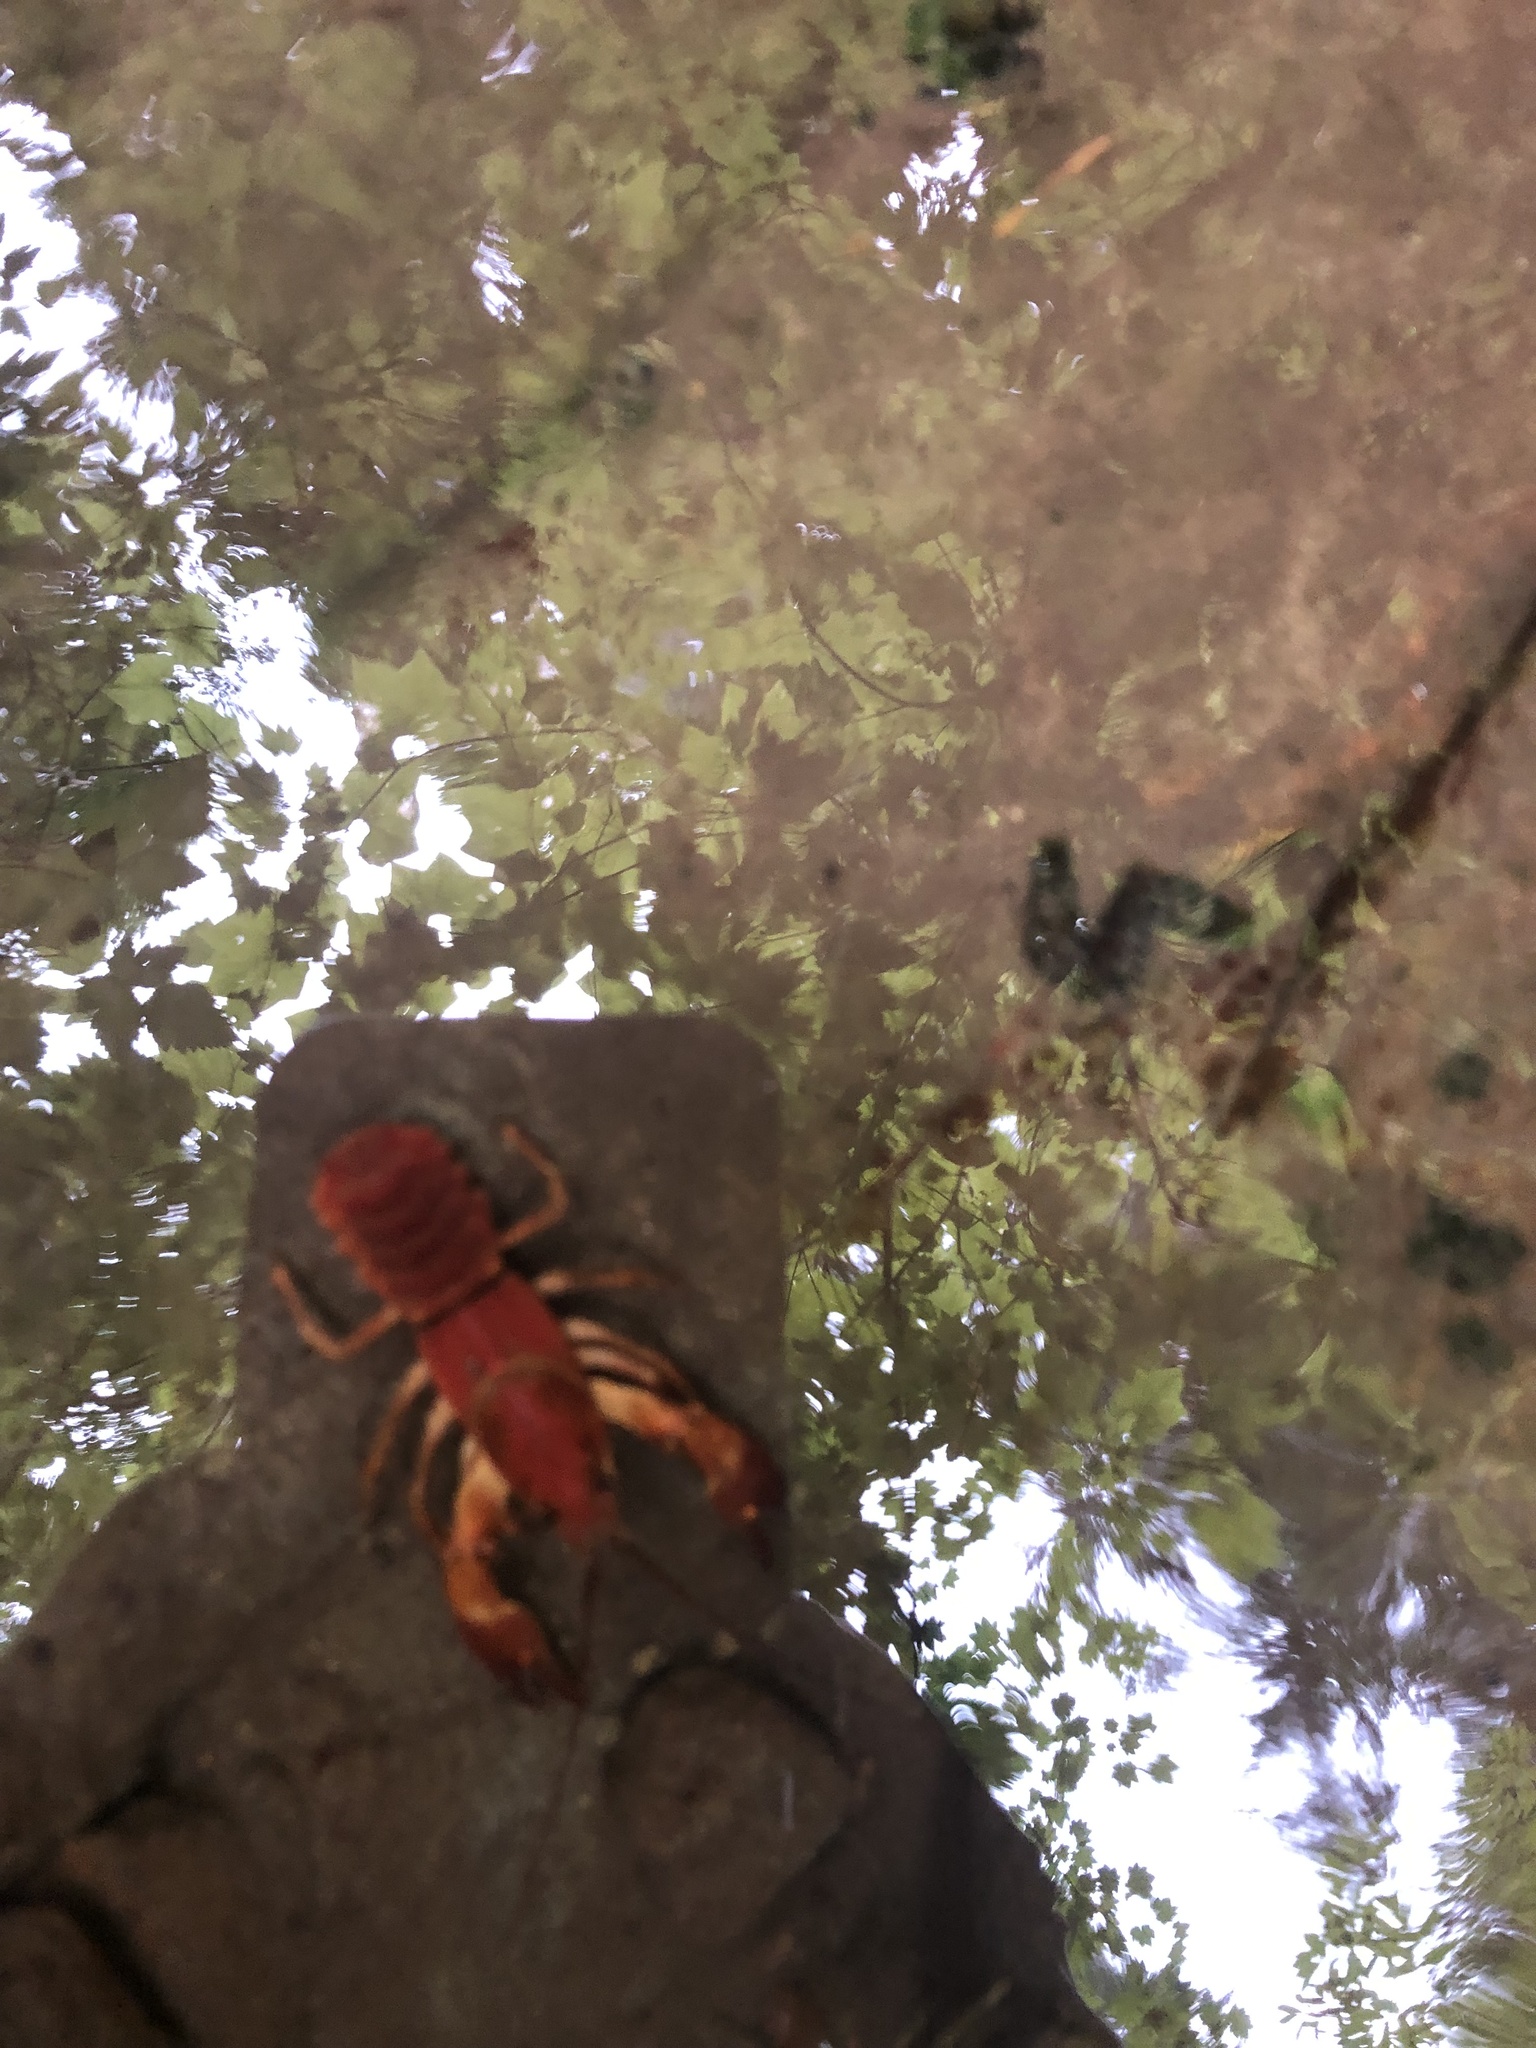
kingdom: Animalia
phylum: Arthropoda
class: Malacostraca
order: Decapoda
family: Astacidae
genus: Pacifastacus
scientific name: Pacifastacus leniusculus
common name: Signal crayfish
